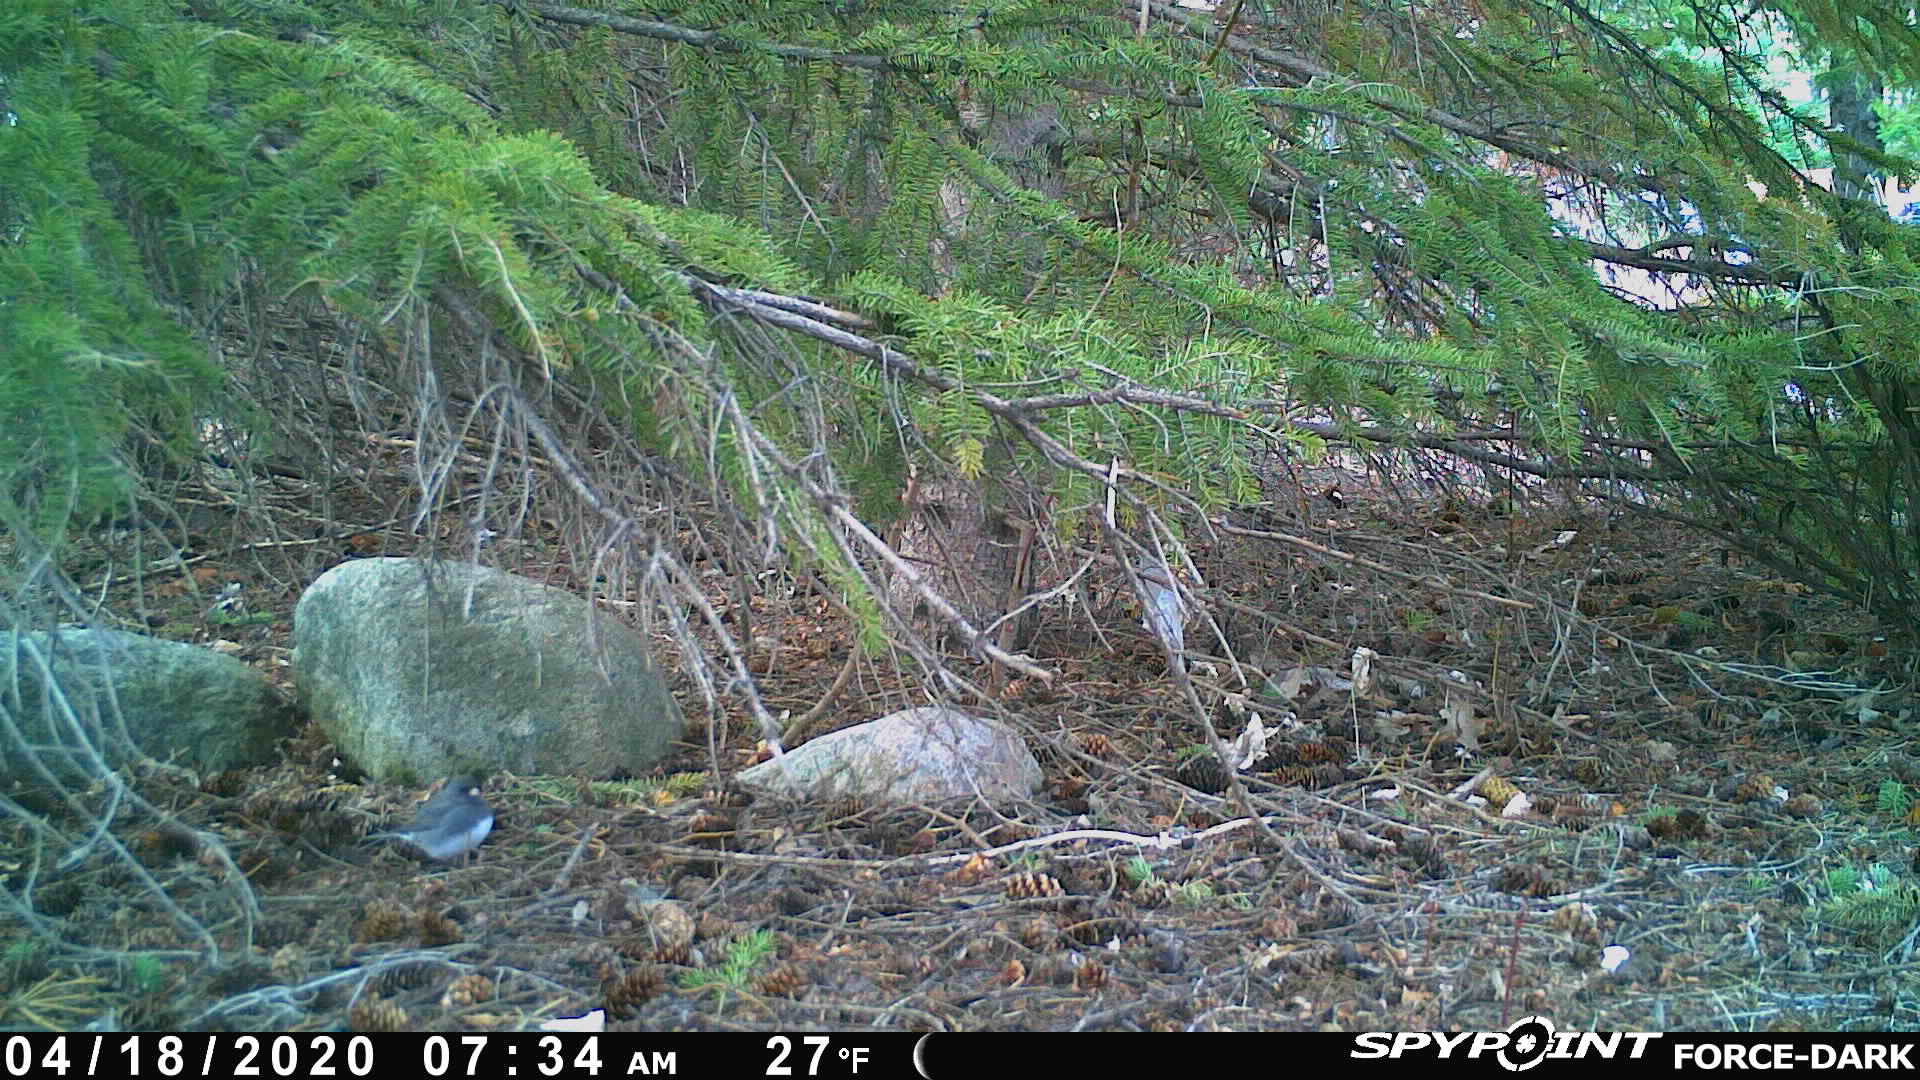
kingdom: Animalia
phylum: Chordata
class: Aves
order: Passeriformes
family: Passerellidae
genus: Junco
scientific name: Junco hyemalis
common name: Dark-eyed junco
